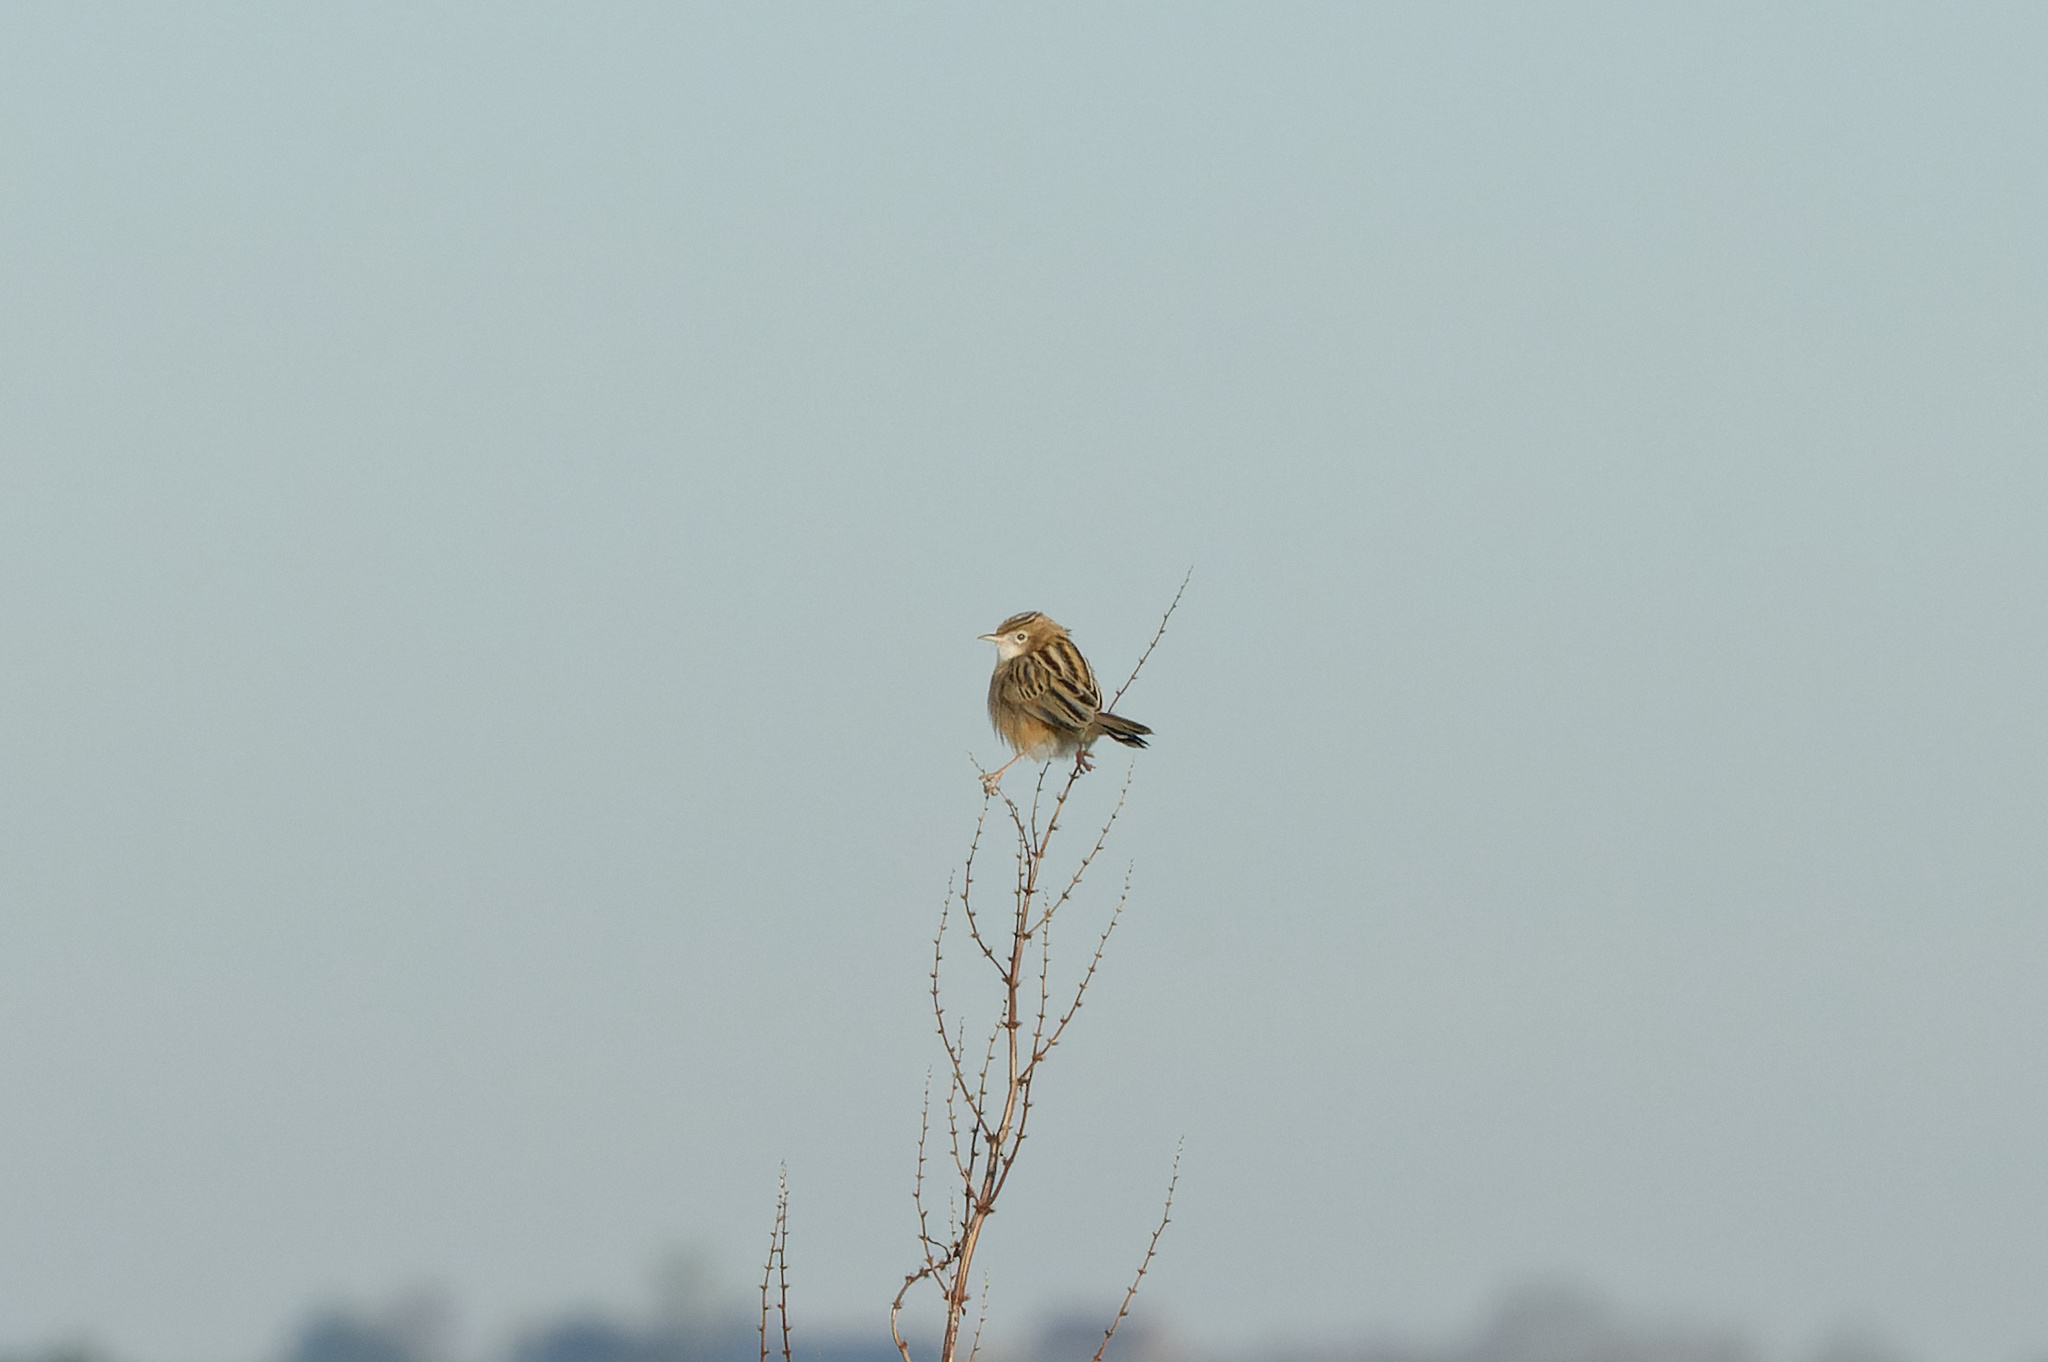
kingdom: Animalia
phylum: Chordata
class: Aves
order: Passeriformes
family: Cisticolidae
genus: Cisticola
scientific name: Cisticola juncidis
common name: Zitting cisticola
